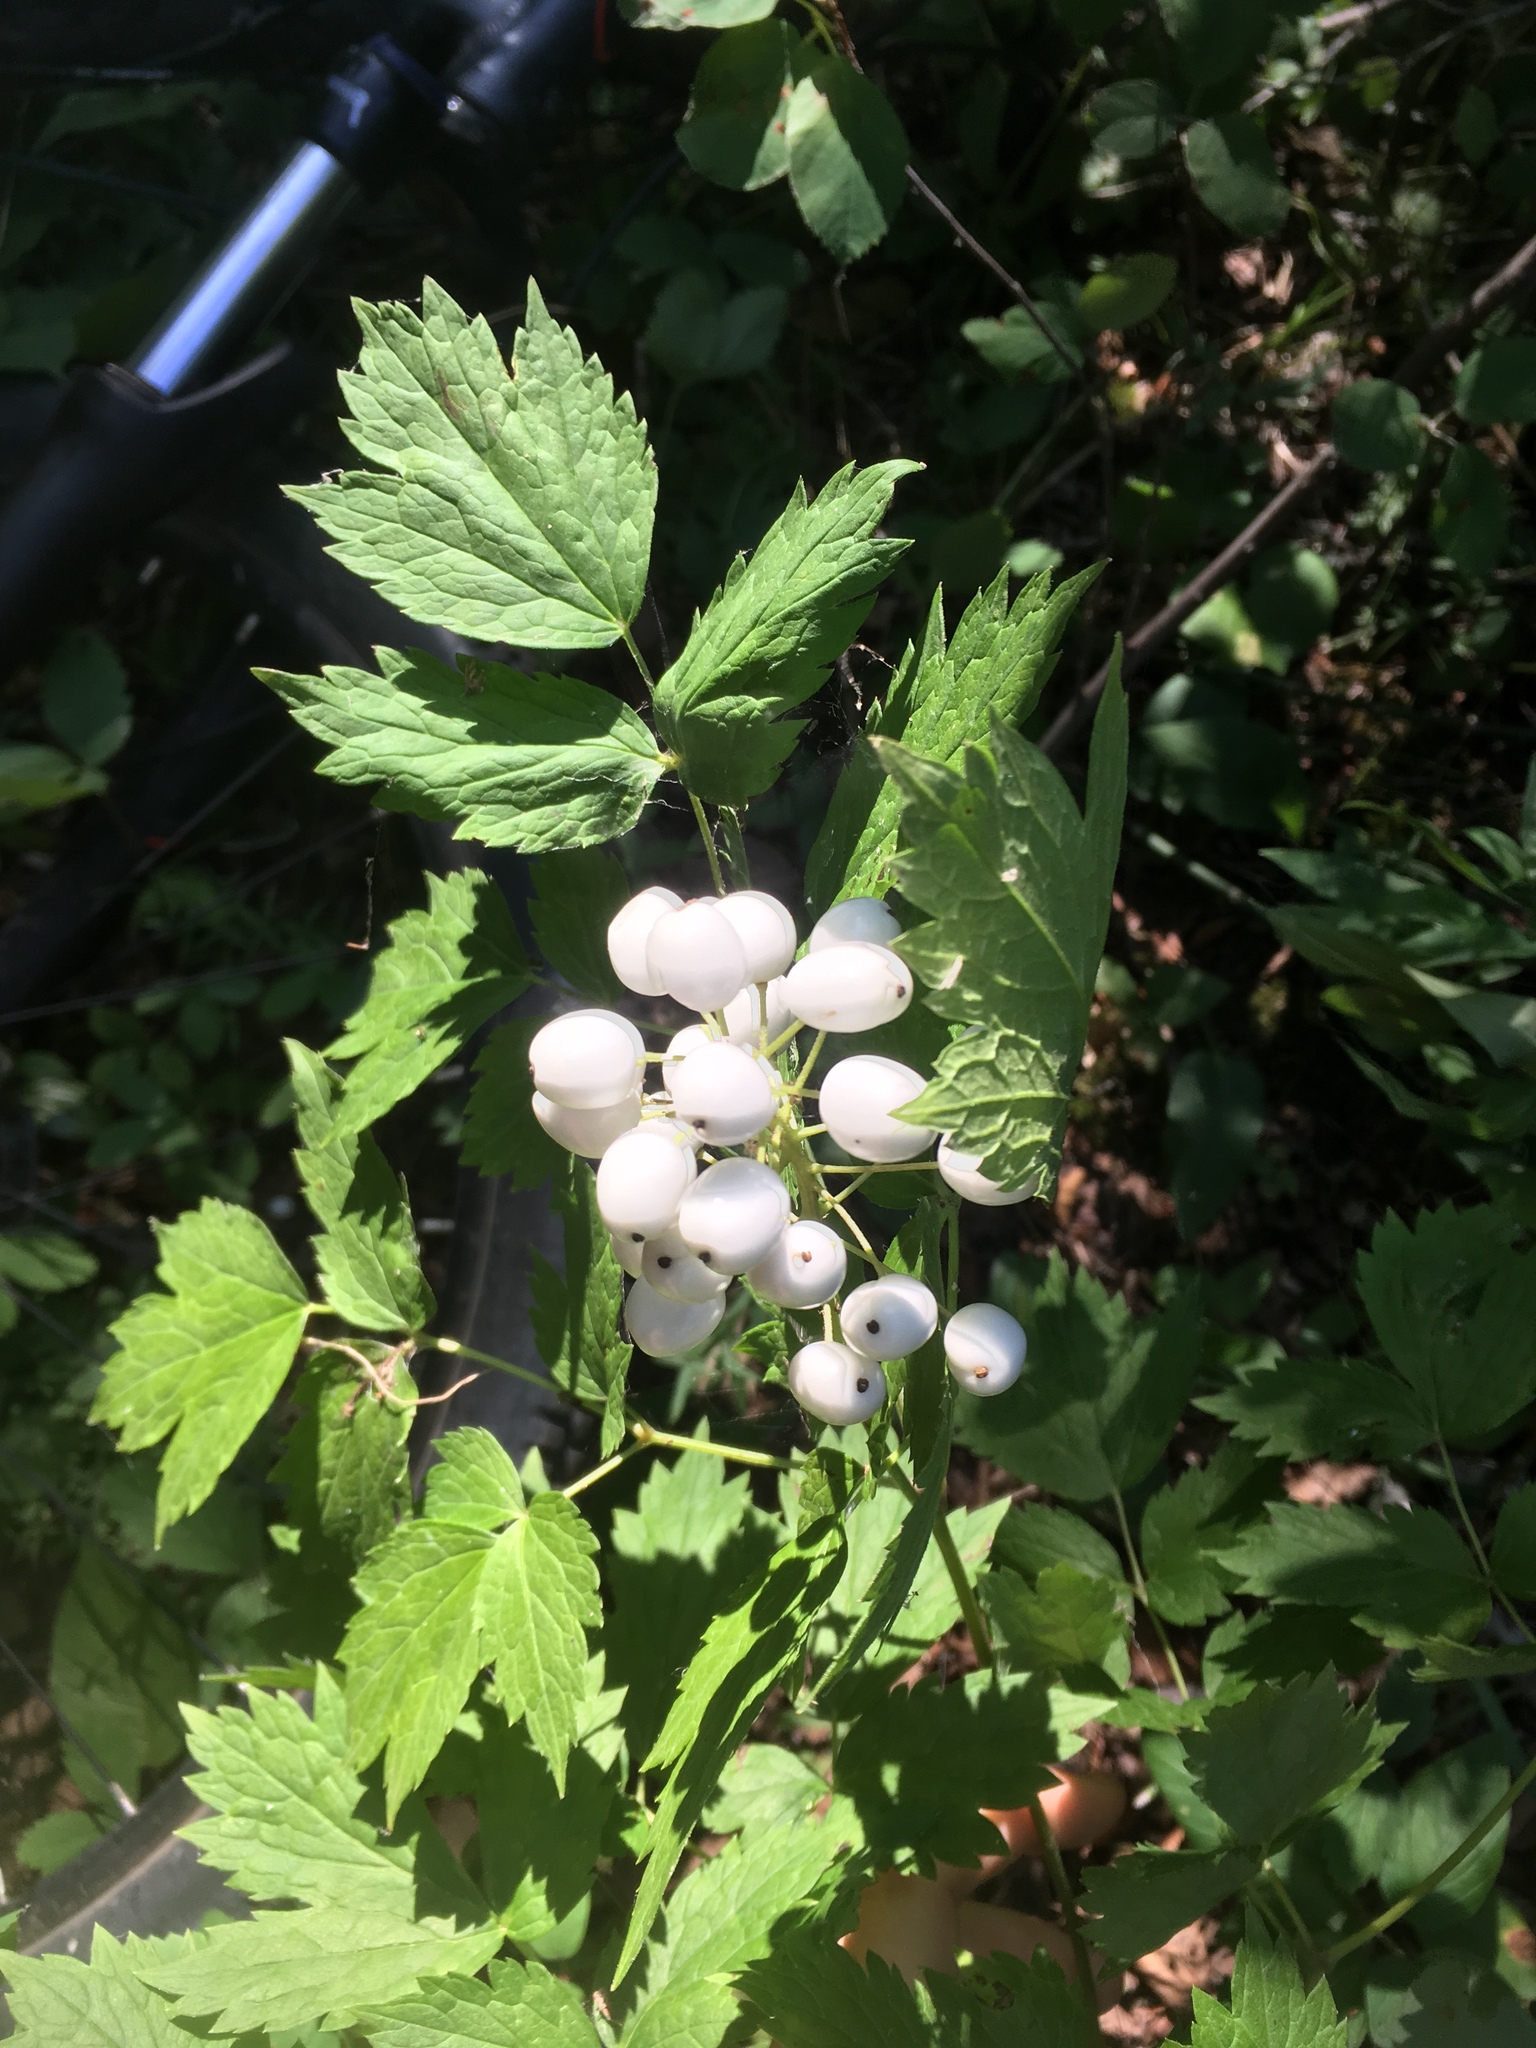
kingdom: Plantae
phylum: Tracheophyta
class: Magnoliopsida
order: Ranunculales
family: Ranunculaceae
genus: Actaea
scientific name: Actaea rubra
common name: Red baneberry
